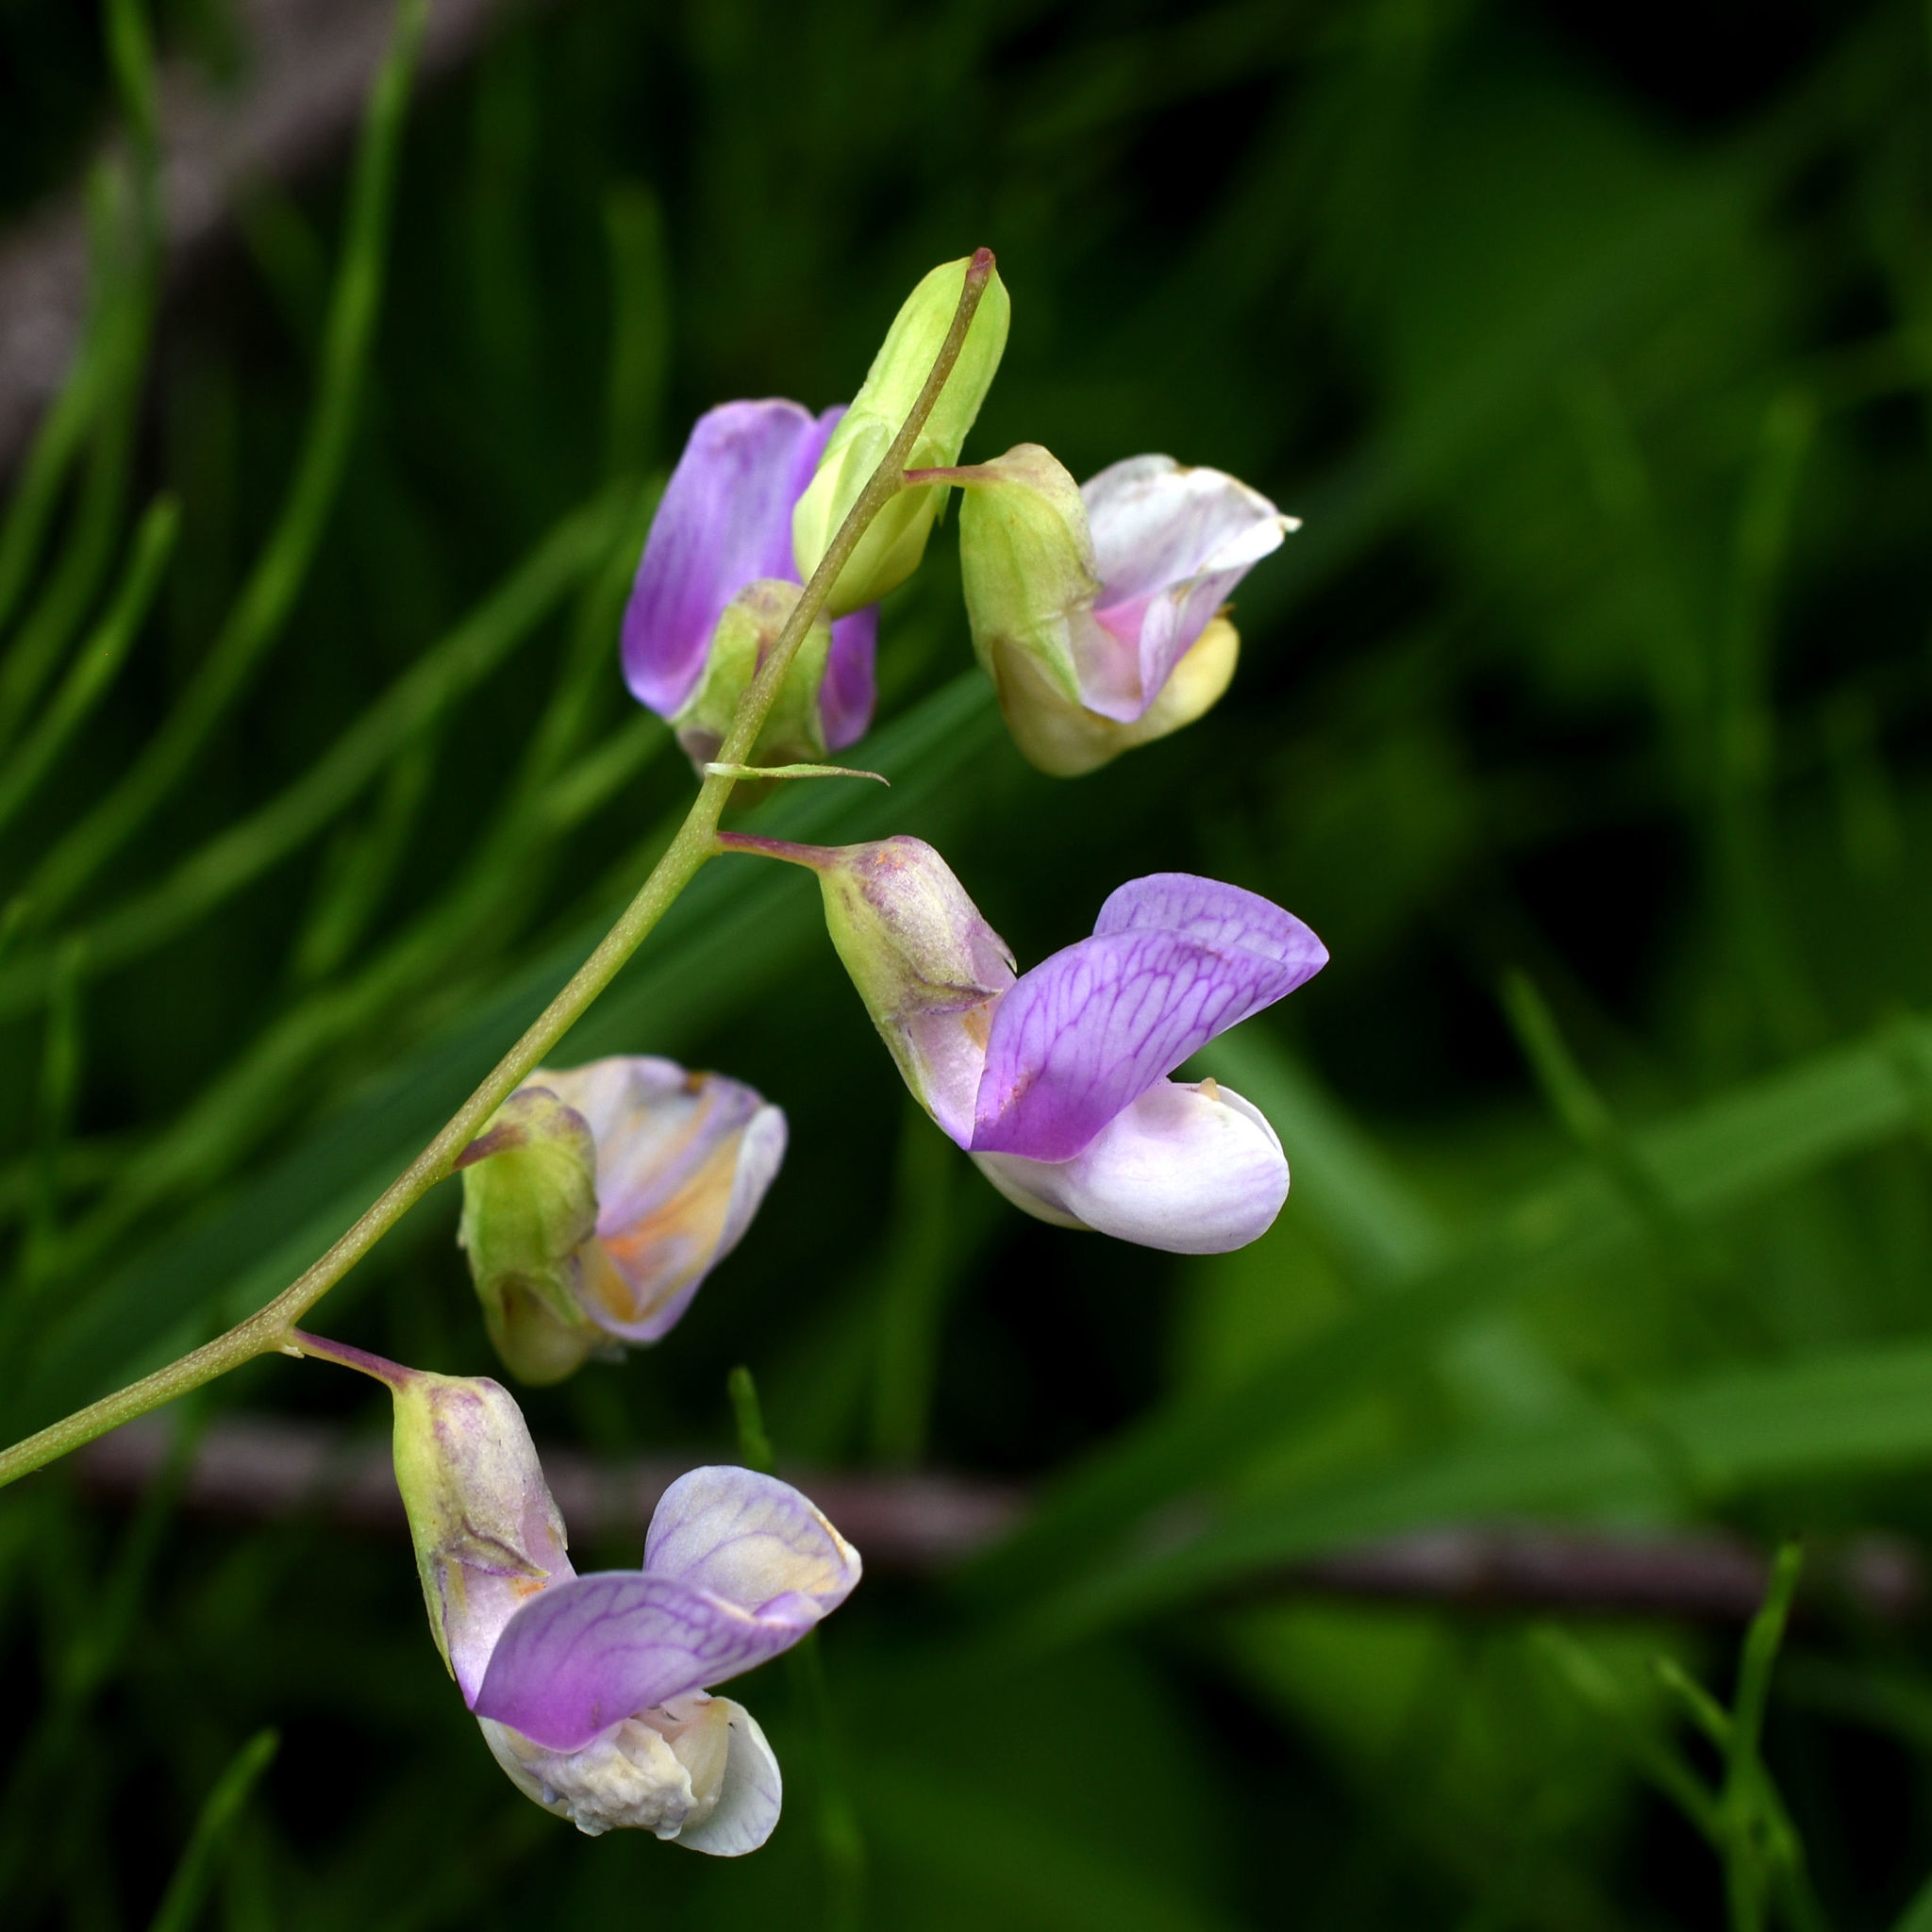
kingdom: Plantae
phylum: Tracheophyta
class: Magnoliopsida
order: Fabales
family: Fabaceae
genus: Lathyrus
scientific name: Lathyrus palustris
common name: Marsh pea
